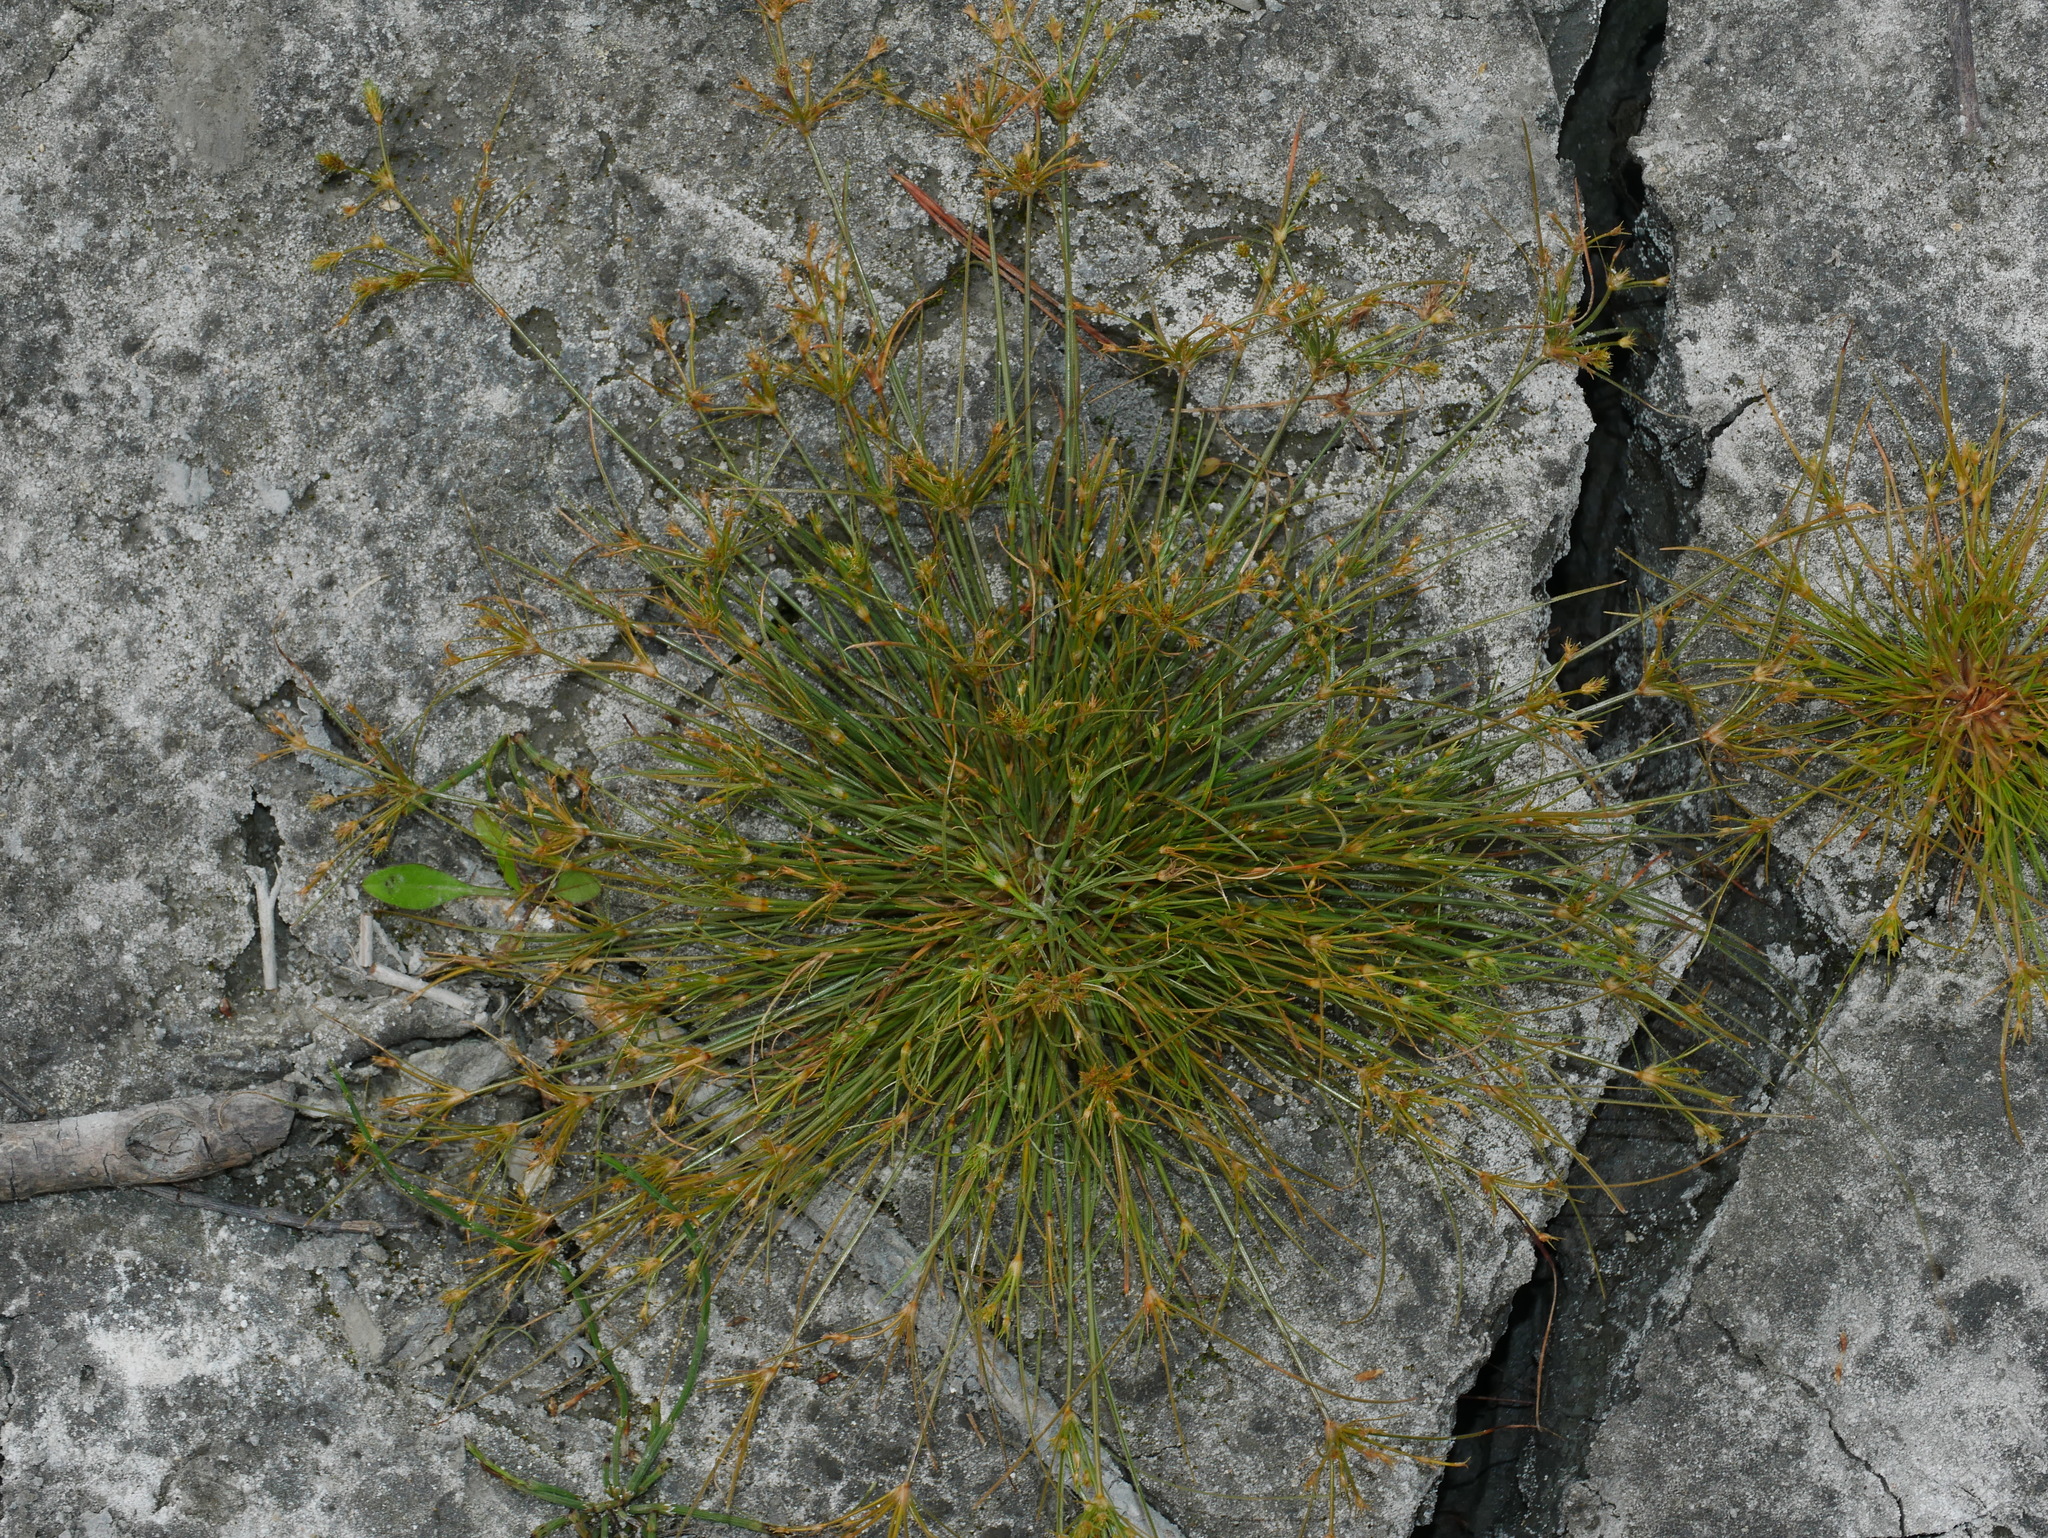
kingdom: Plantae
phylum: Tracheophyta
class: Liliopsida
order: Poales
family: Cyperaceae
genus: Fimbristylis
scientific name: Fimbristylis squarrosa
